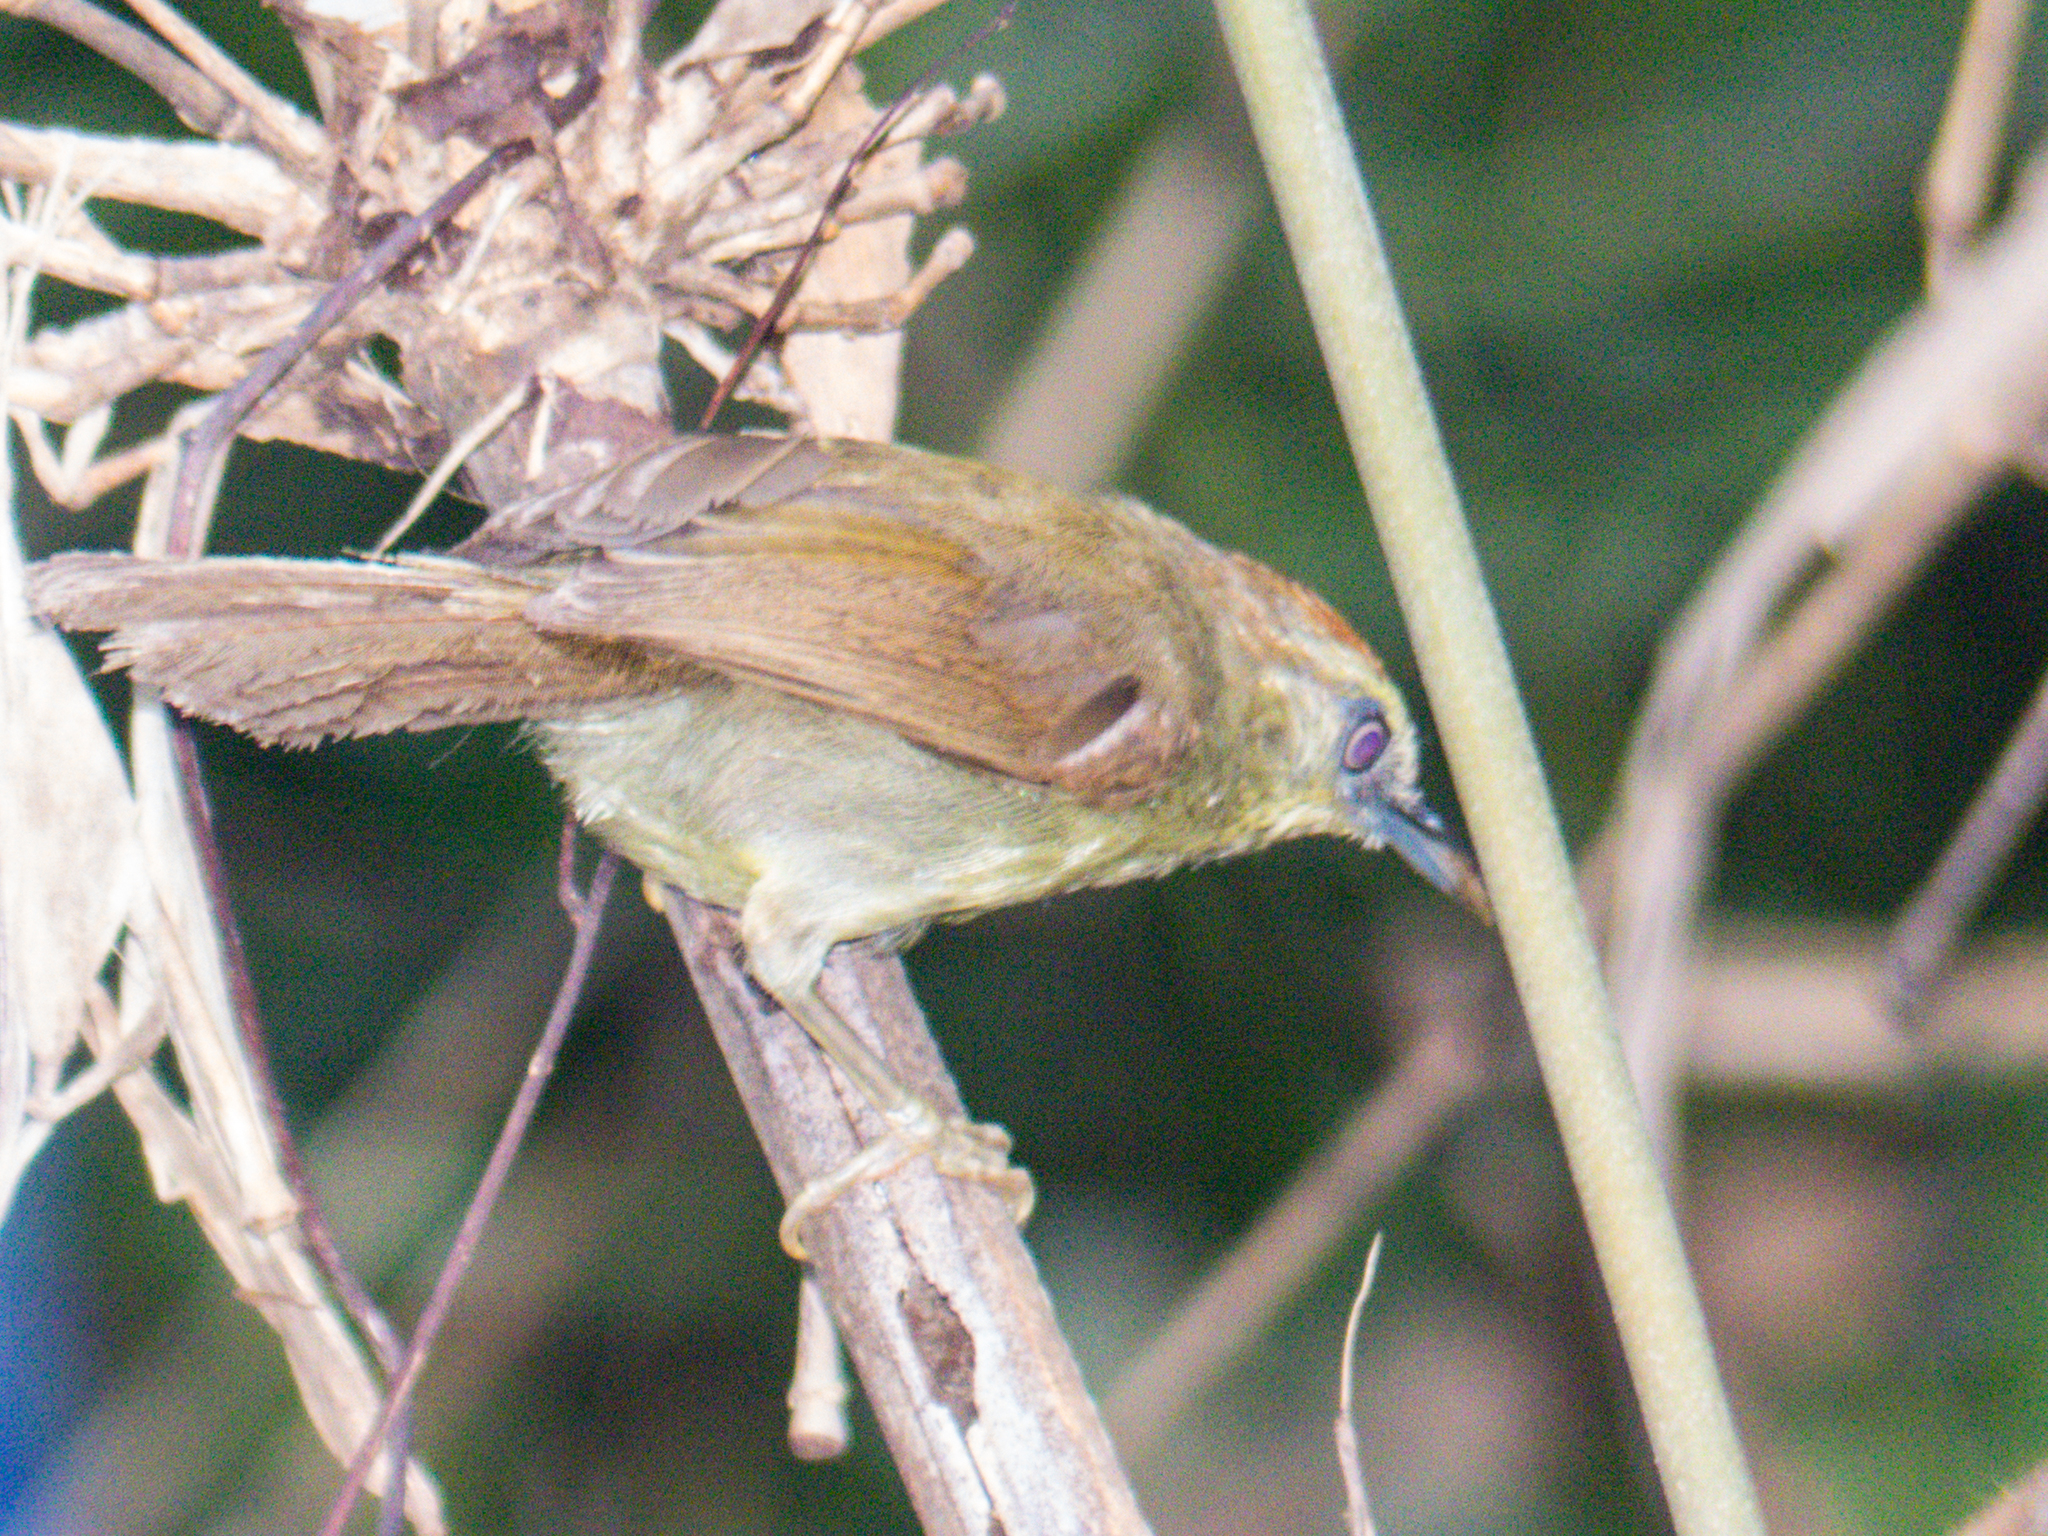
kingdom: Animalia
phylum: Chordata
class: Aves
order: Passeriformes
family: Timaliidae
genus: Macronus
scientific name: Macronus gularis
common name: Striped tit-babbler
